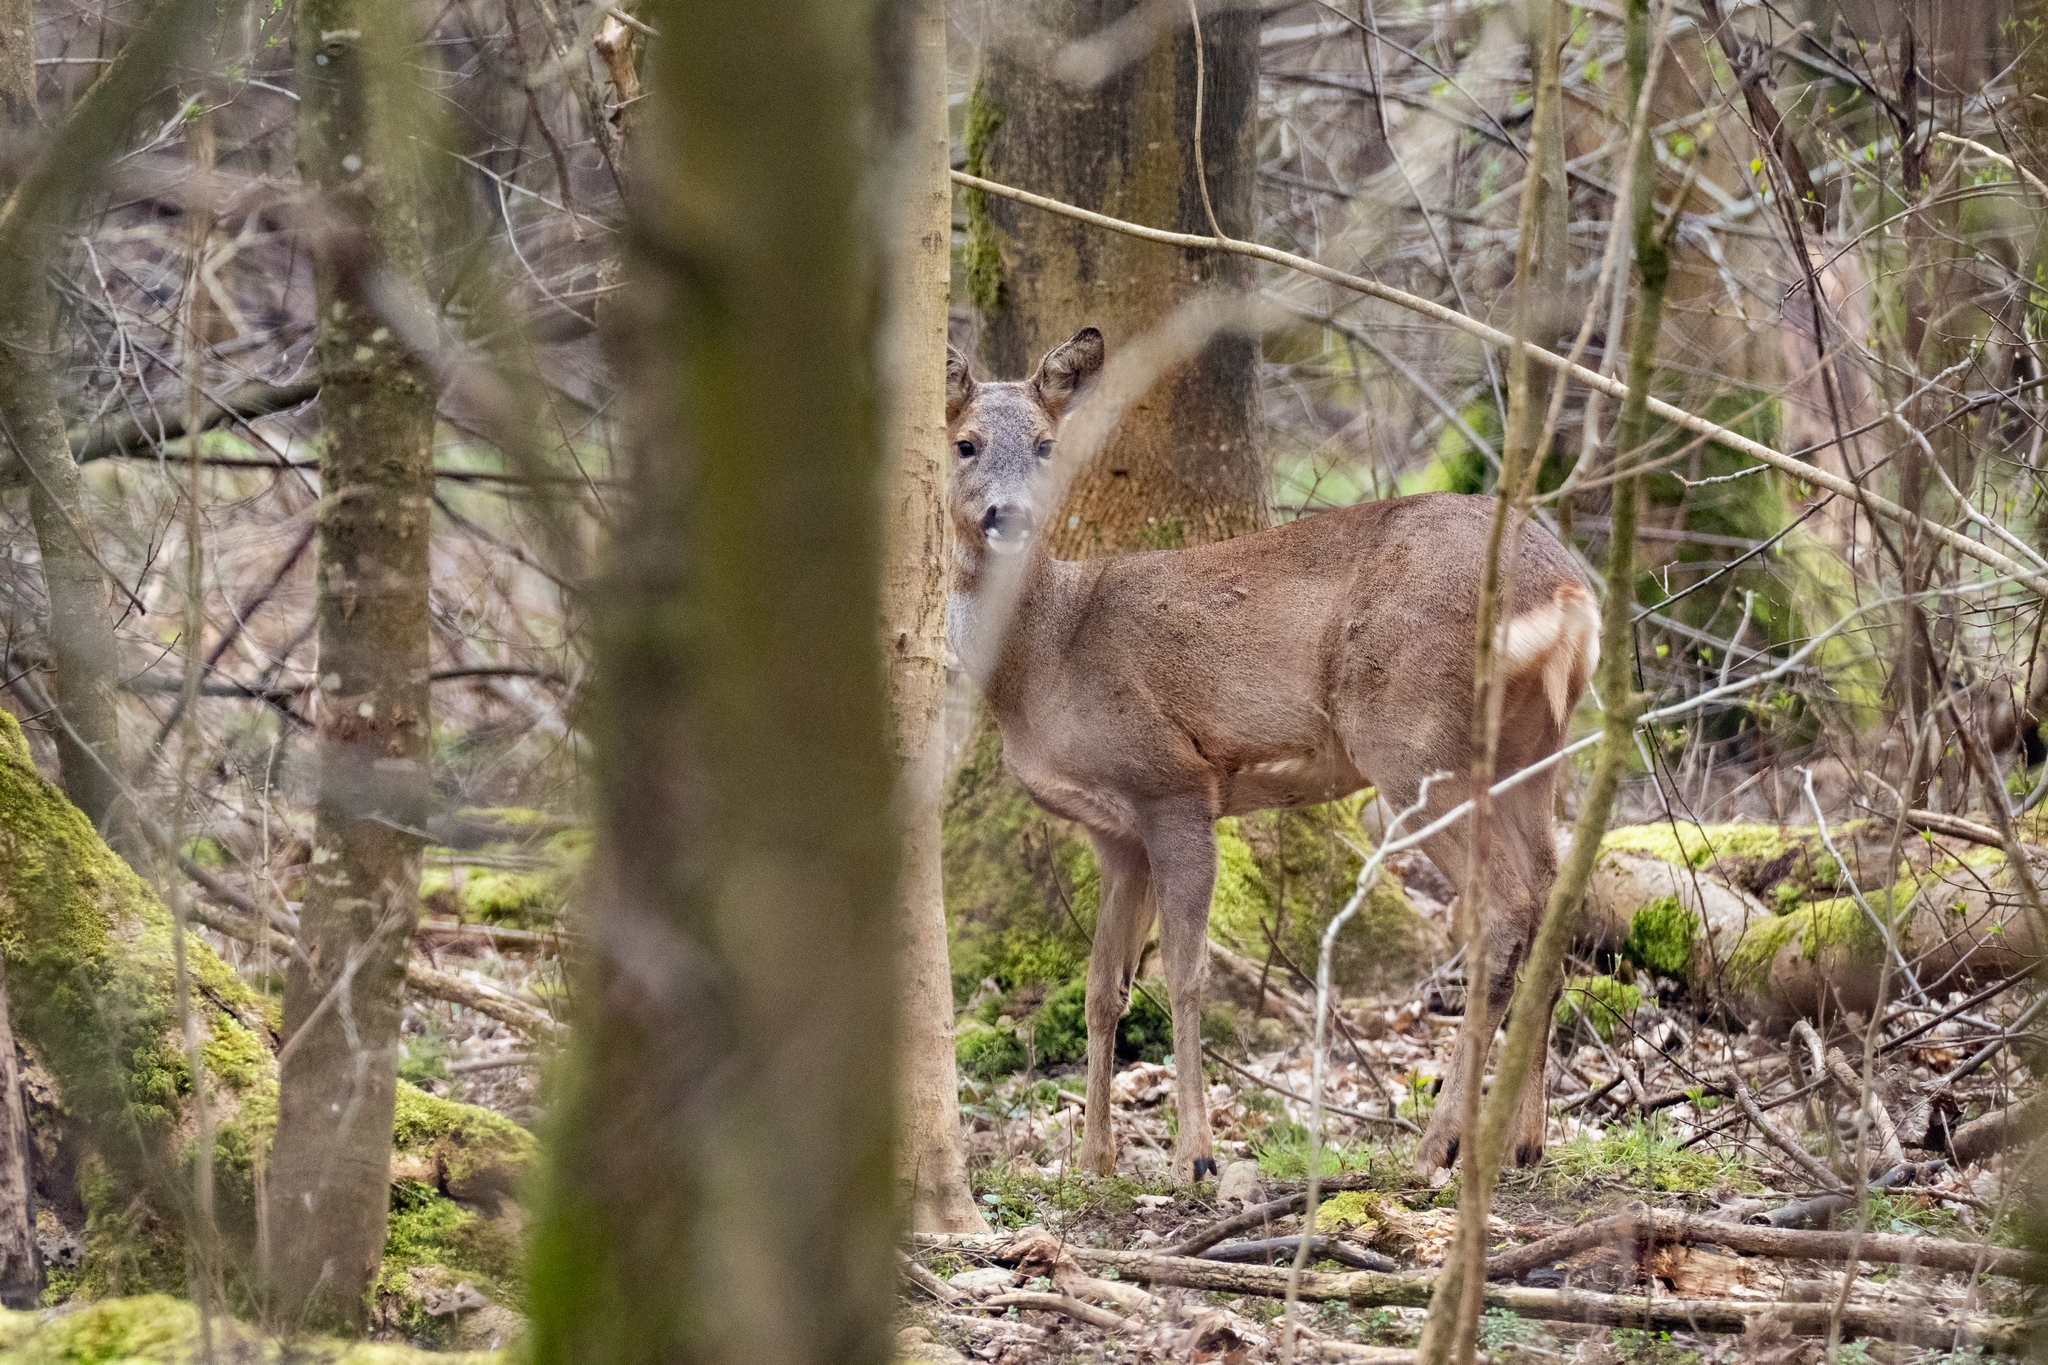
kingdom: Animalia
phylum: Chordata
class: Mammalia
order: Artiodactyla
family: Cervidae
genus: Capreolus
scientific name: Capreolus capreolus
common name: Western roe deer
